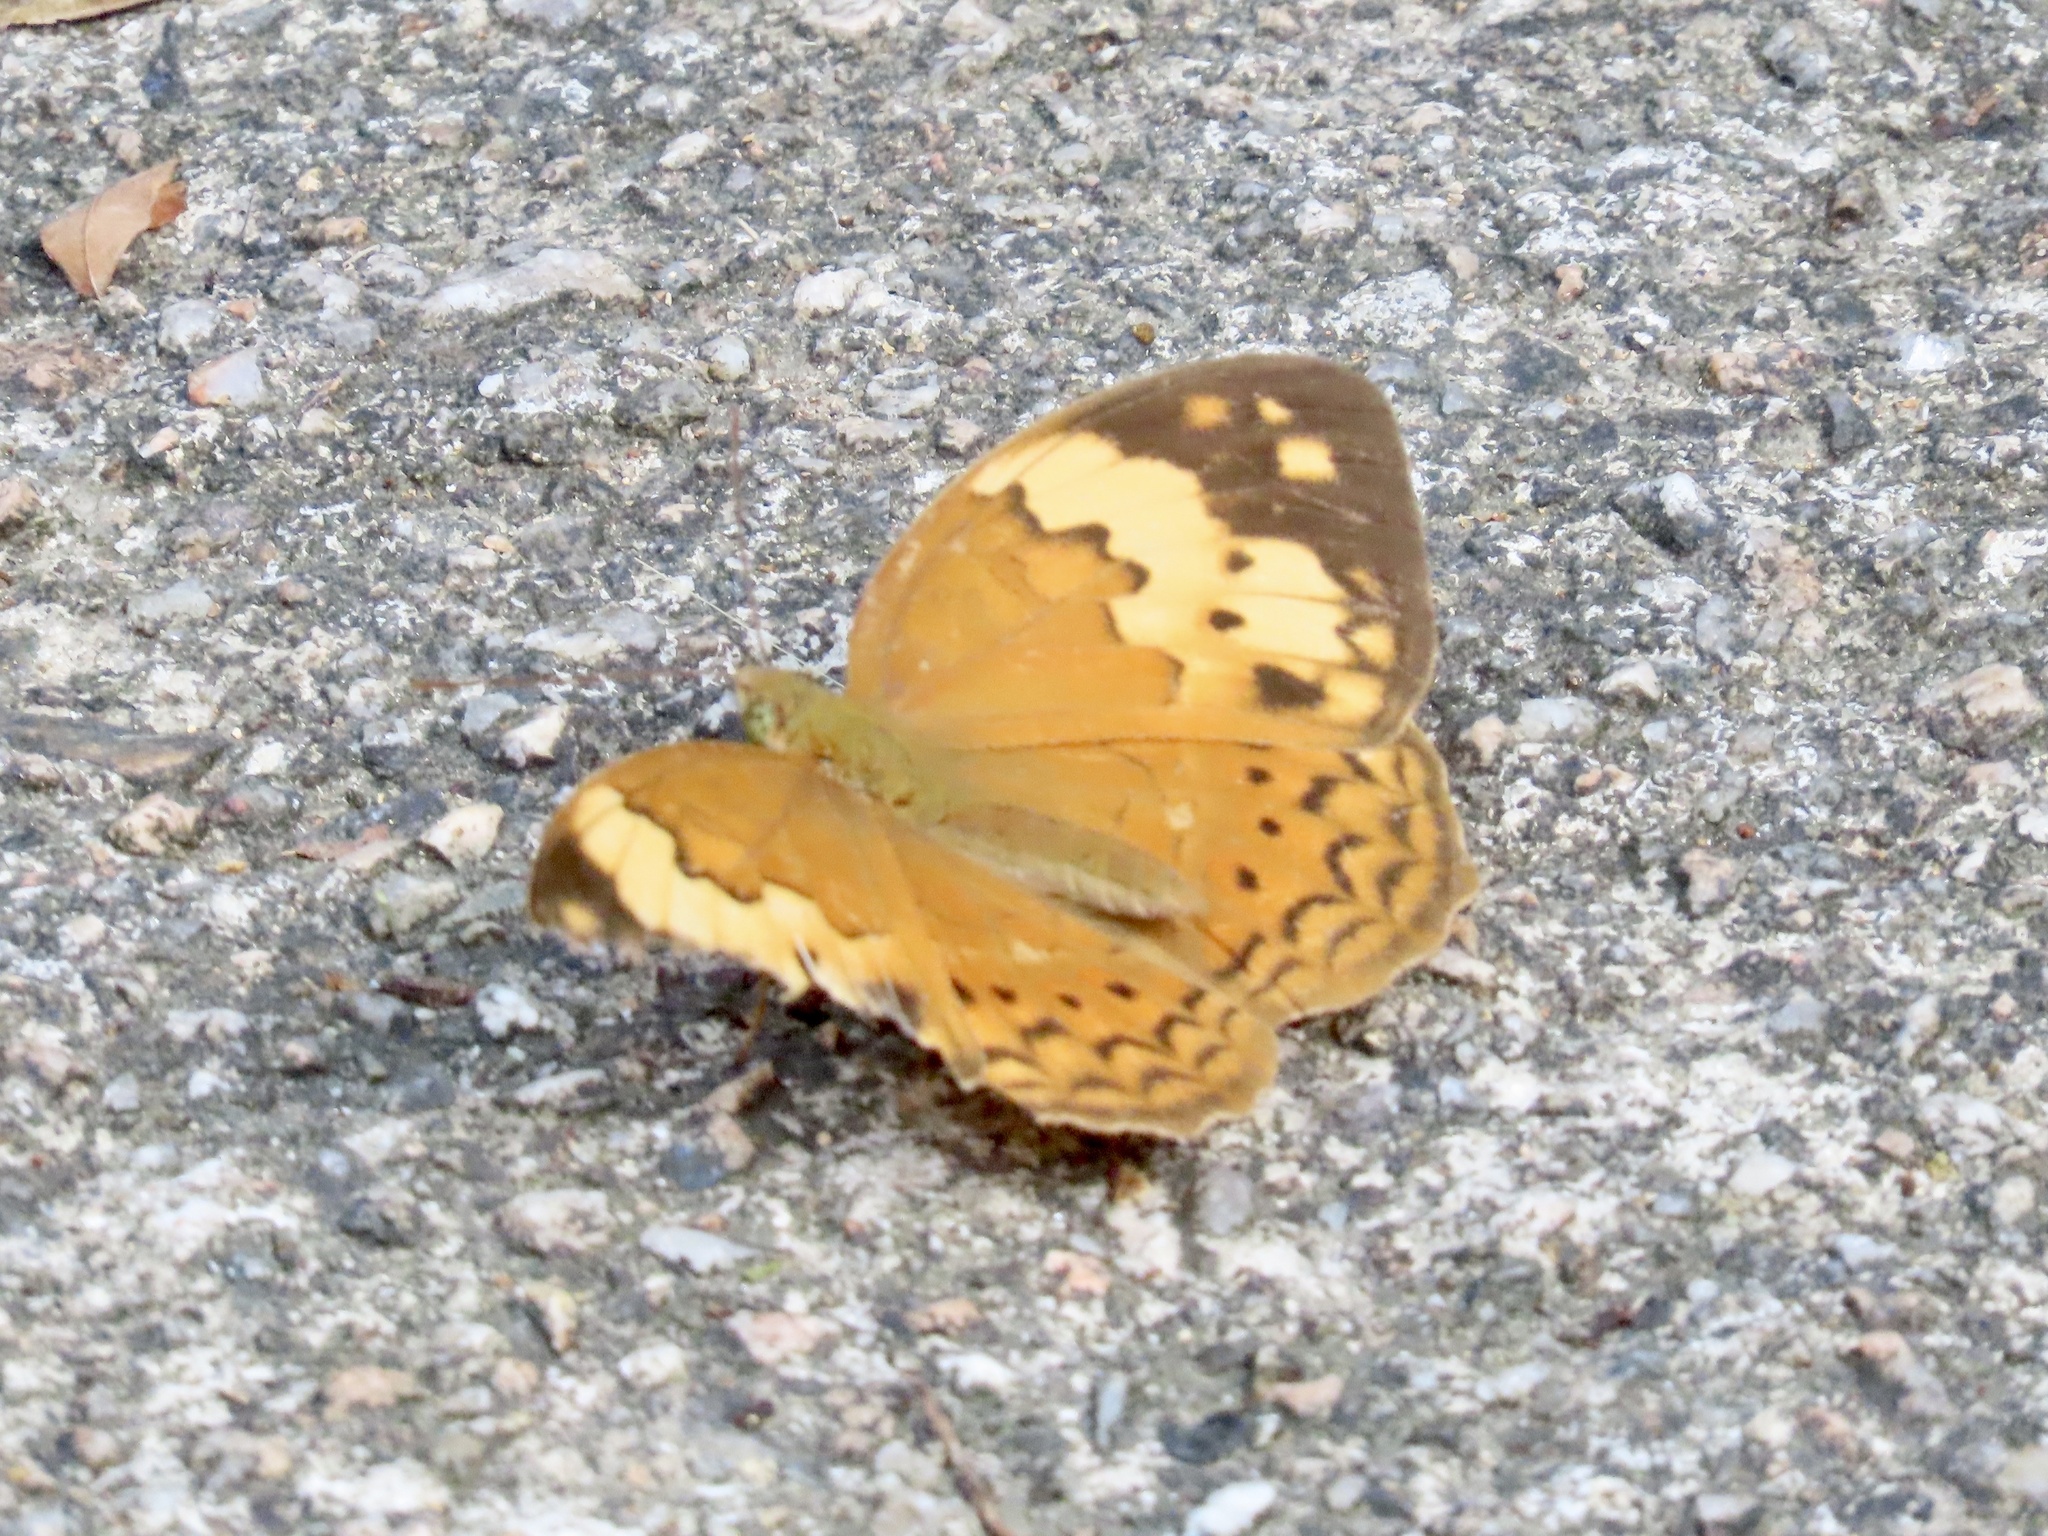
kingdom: Animalia
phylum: Arthropoda
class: Insecta
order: Lepidoptera
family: Nymphalidae
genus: Cupha
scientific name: Cupha erymanthis
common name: Rustic
